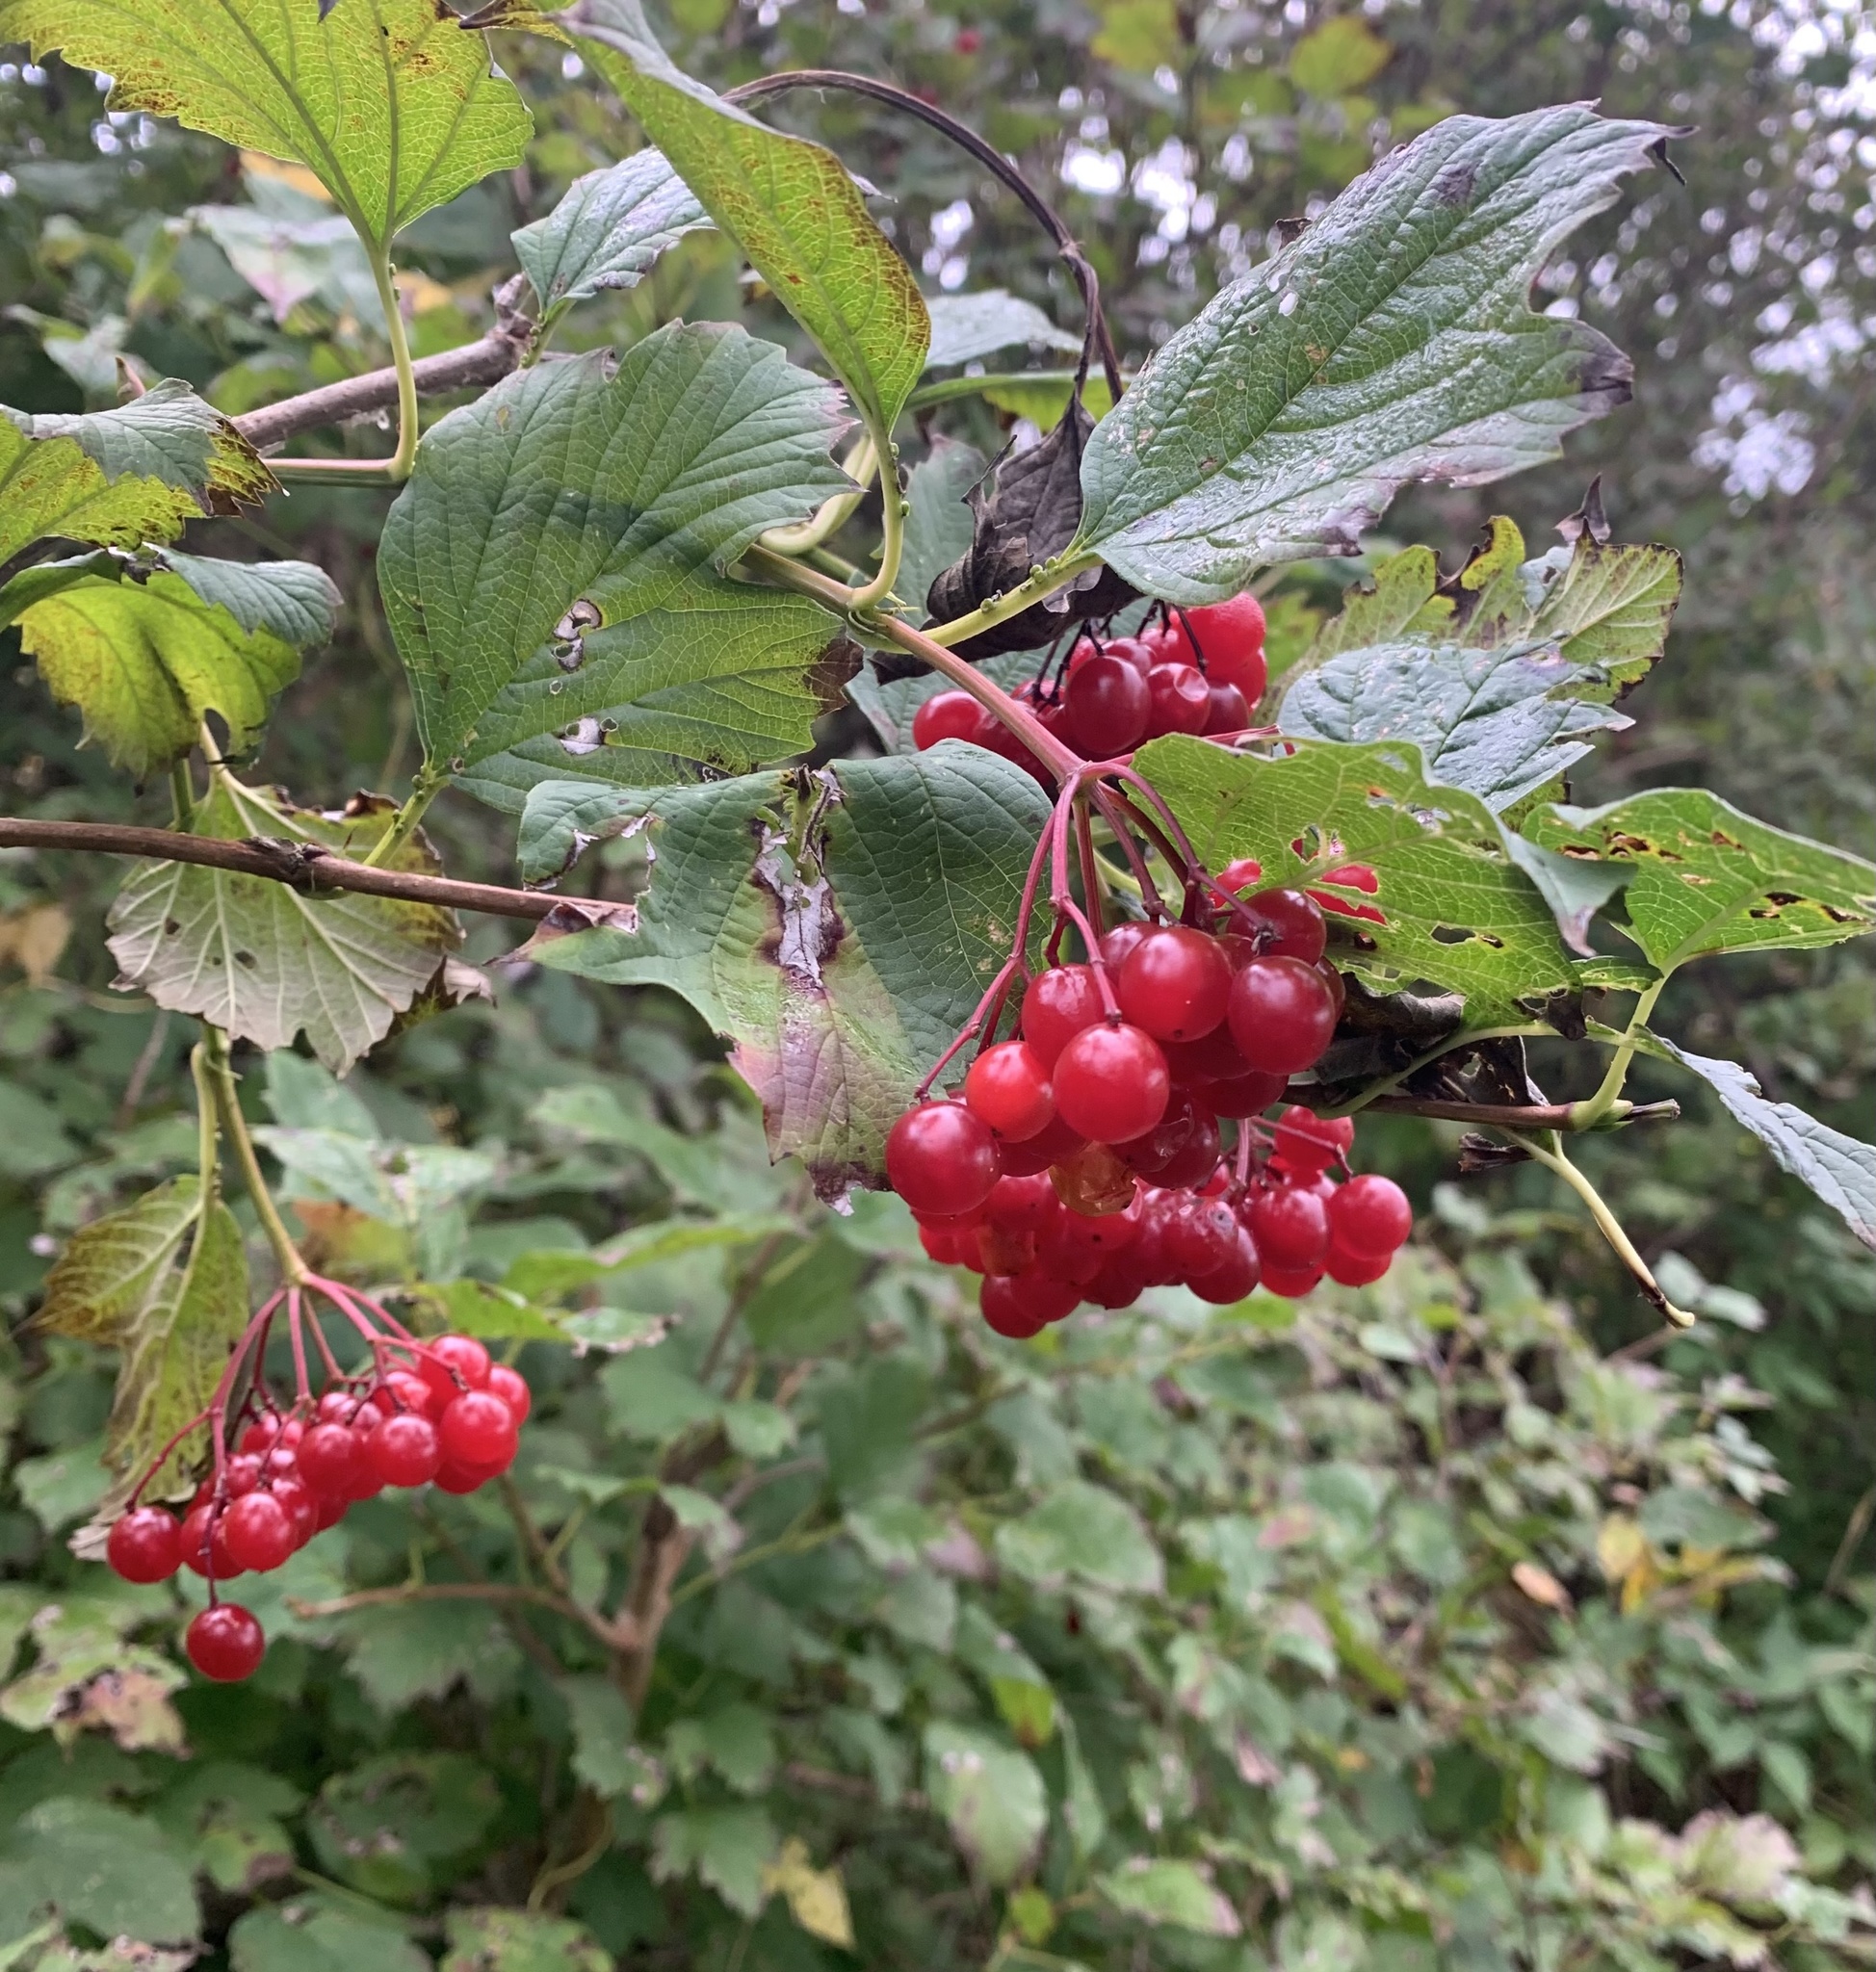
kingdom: Plantae
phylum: Tracheophyta
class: Magnoliopsida
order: Dipsacales
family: Viburnaceae
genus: Viburnum
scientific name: Viburnum opulus
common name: Guelder-rose
